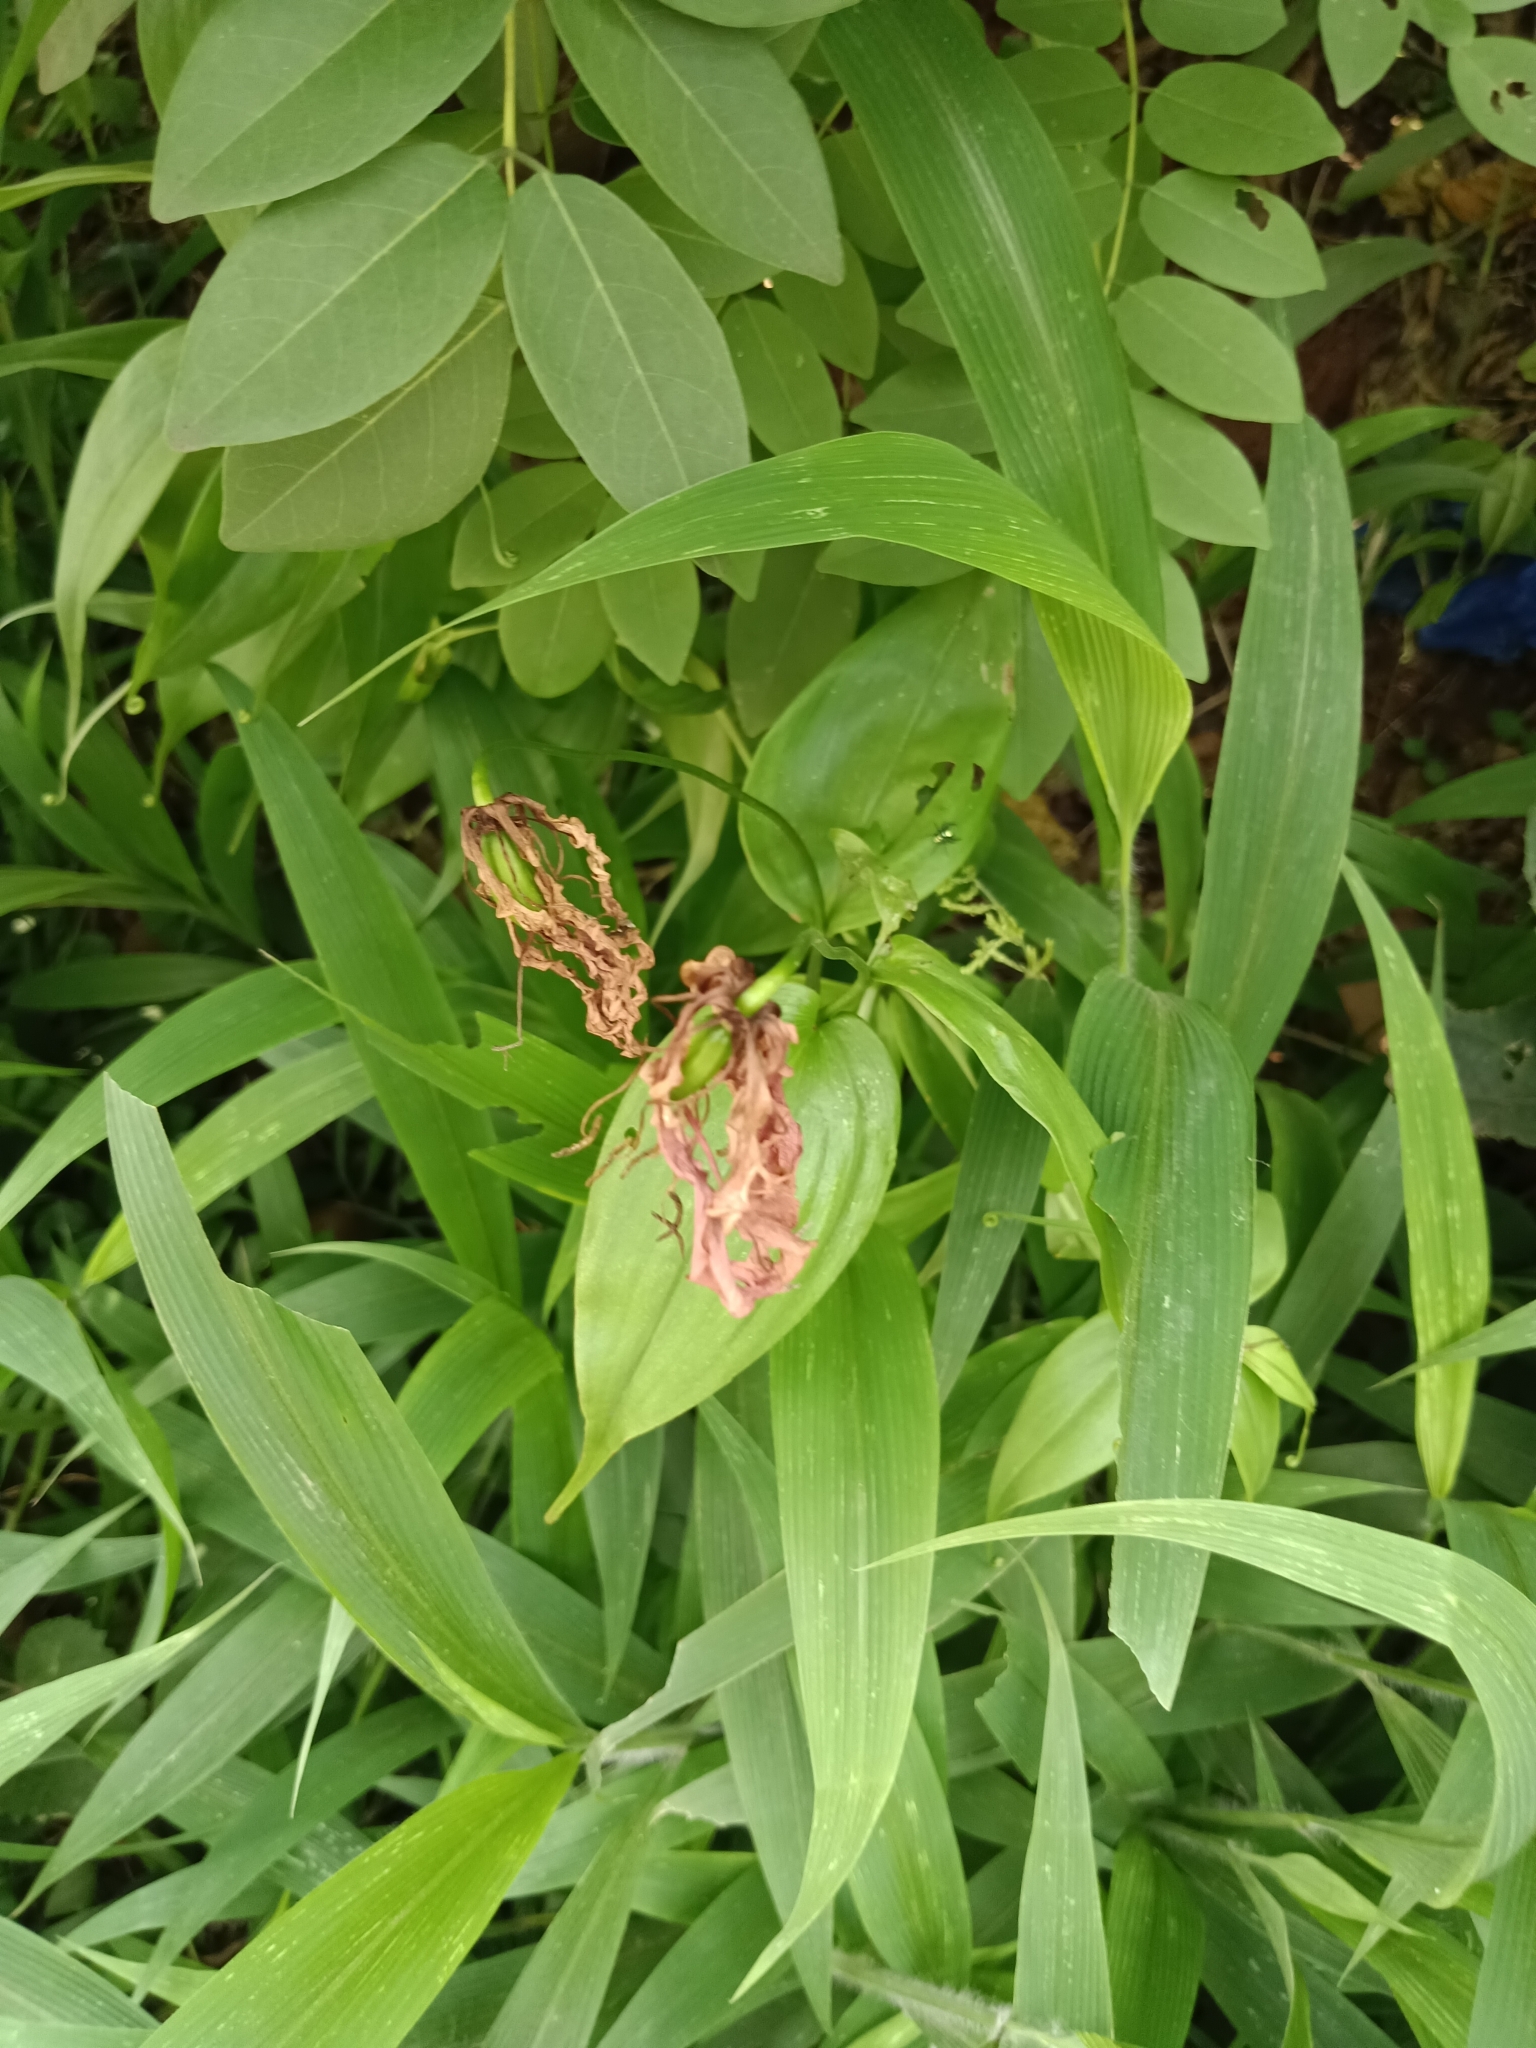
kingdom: Plantae
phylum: Tracheophyta
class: Liliopsida
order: Liliales
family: Colchicaceae
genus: Gloriosa
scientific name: Gloriosa superba
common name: Flame lily
